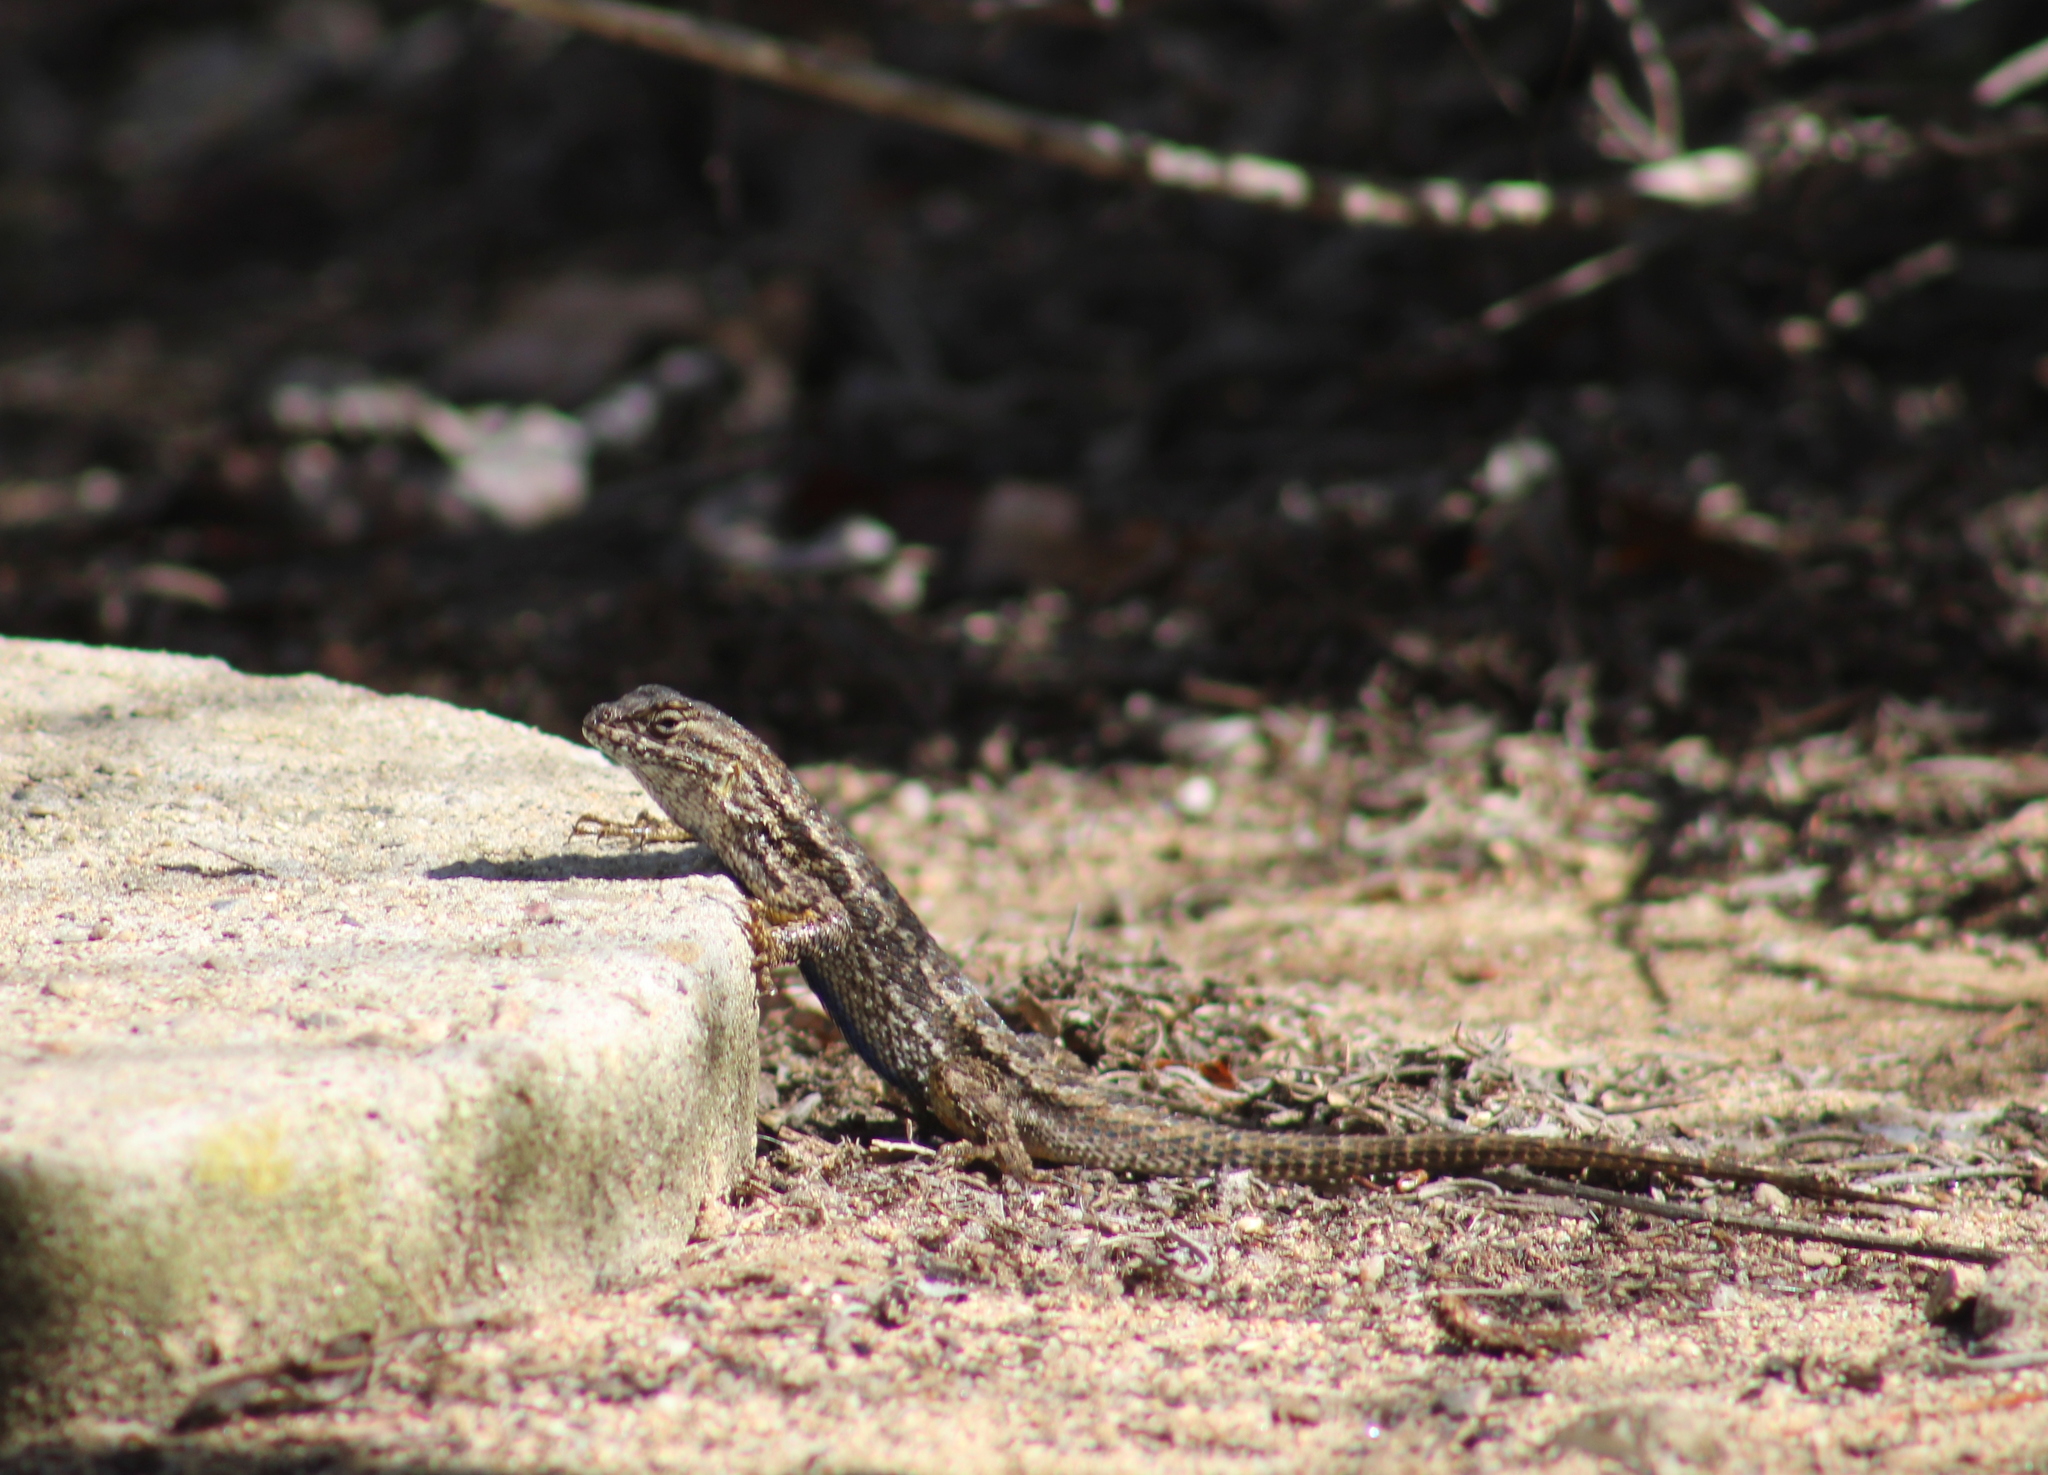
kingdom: Animalia
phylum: Chordata
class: Squamata
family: Phrynosomatidae
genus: Sceloporus
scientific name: Sceloporus occidentalis
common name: Western fence lizard
